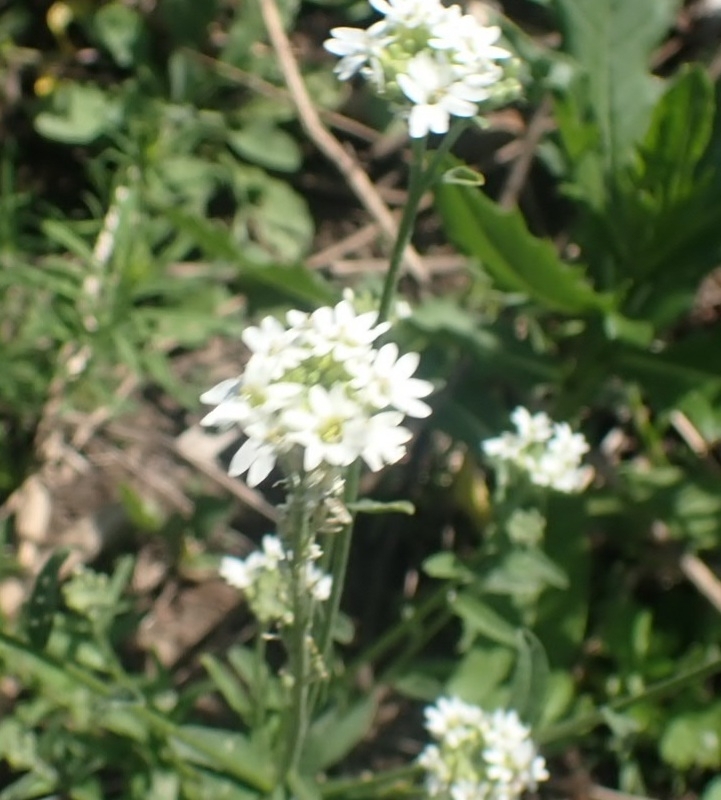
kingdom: Plantae
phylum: Tracheophyta
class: Magnoliopsida
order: Brassicales
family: Brassicaceae
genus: Berteroa
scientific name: Berteroa incana
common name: Hoary alison
